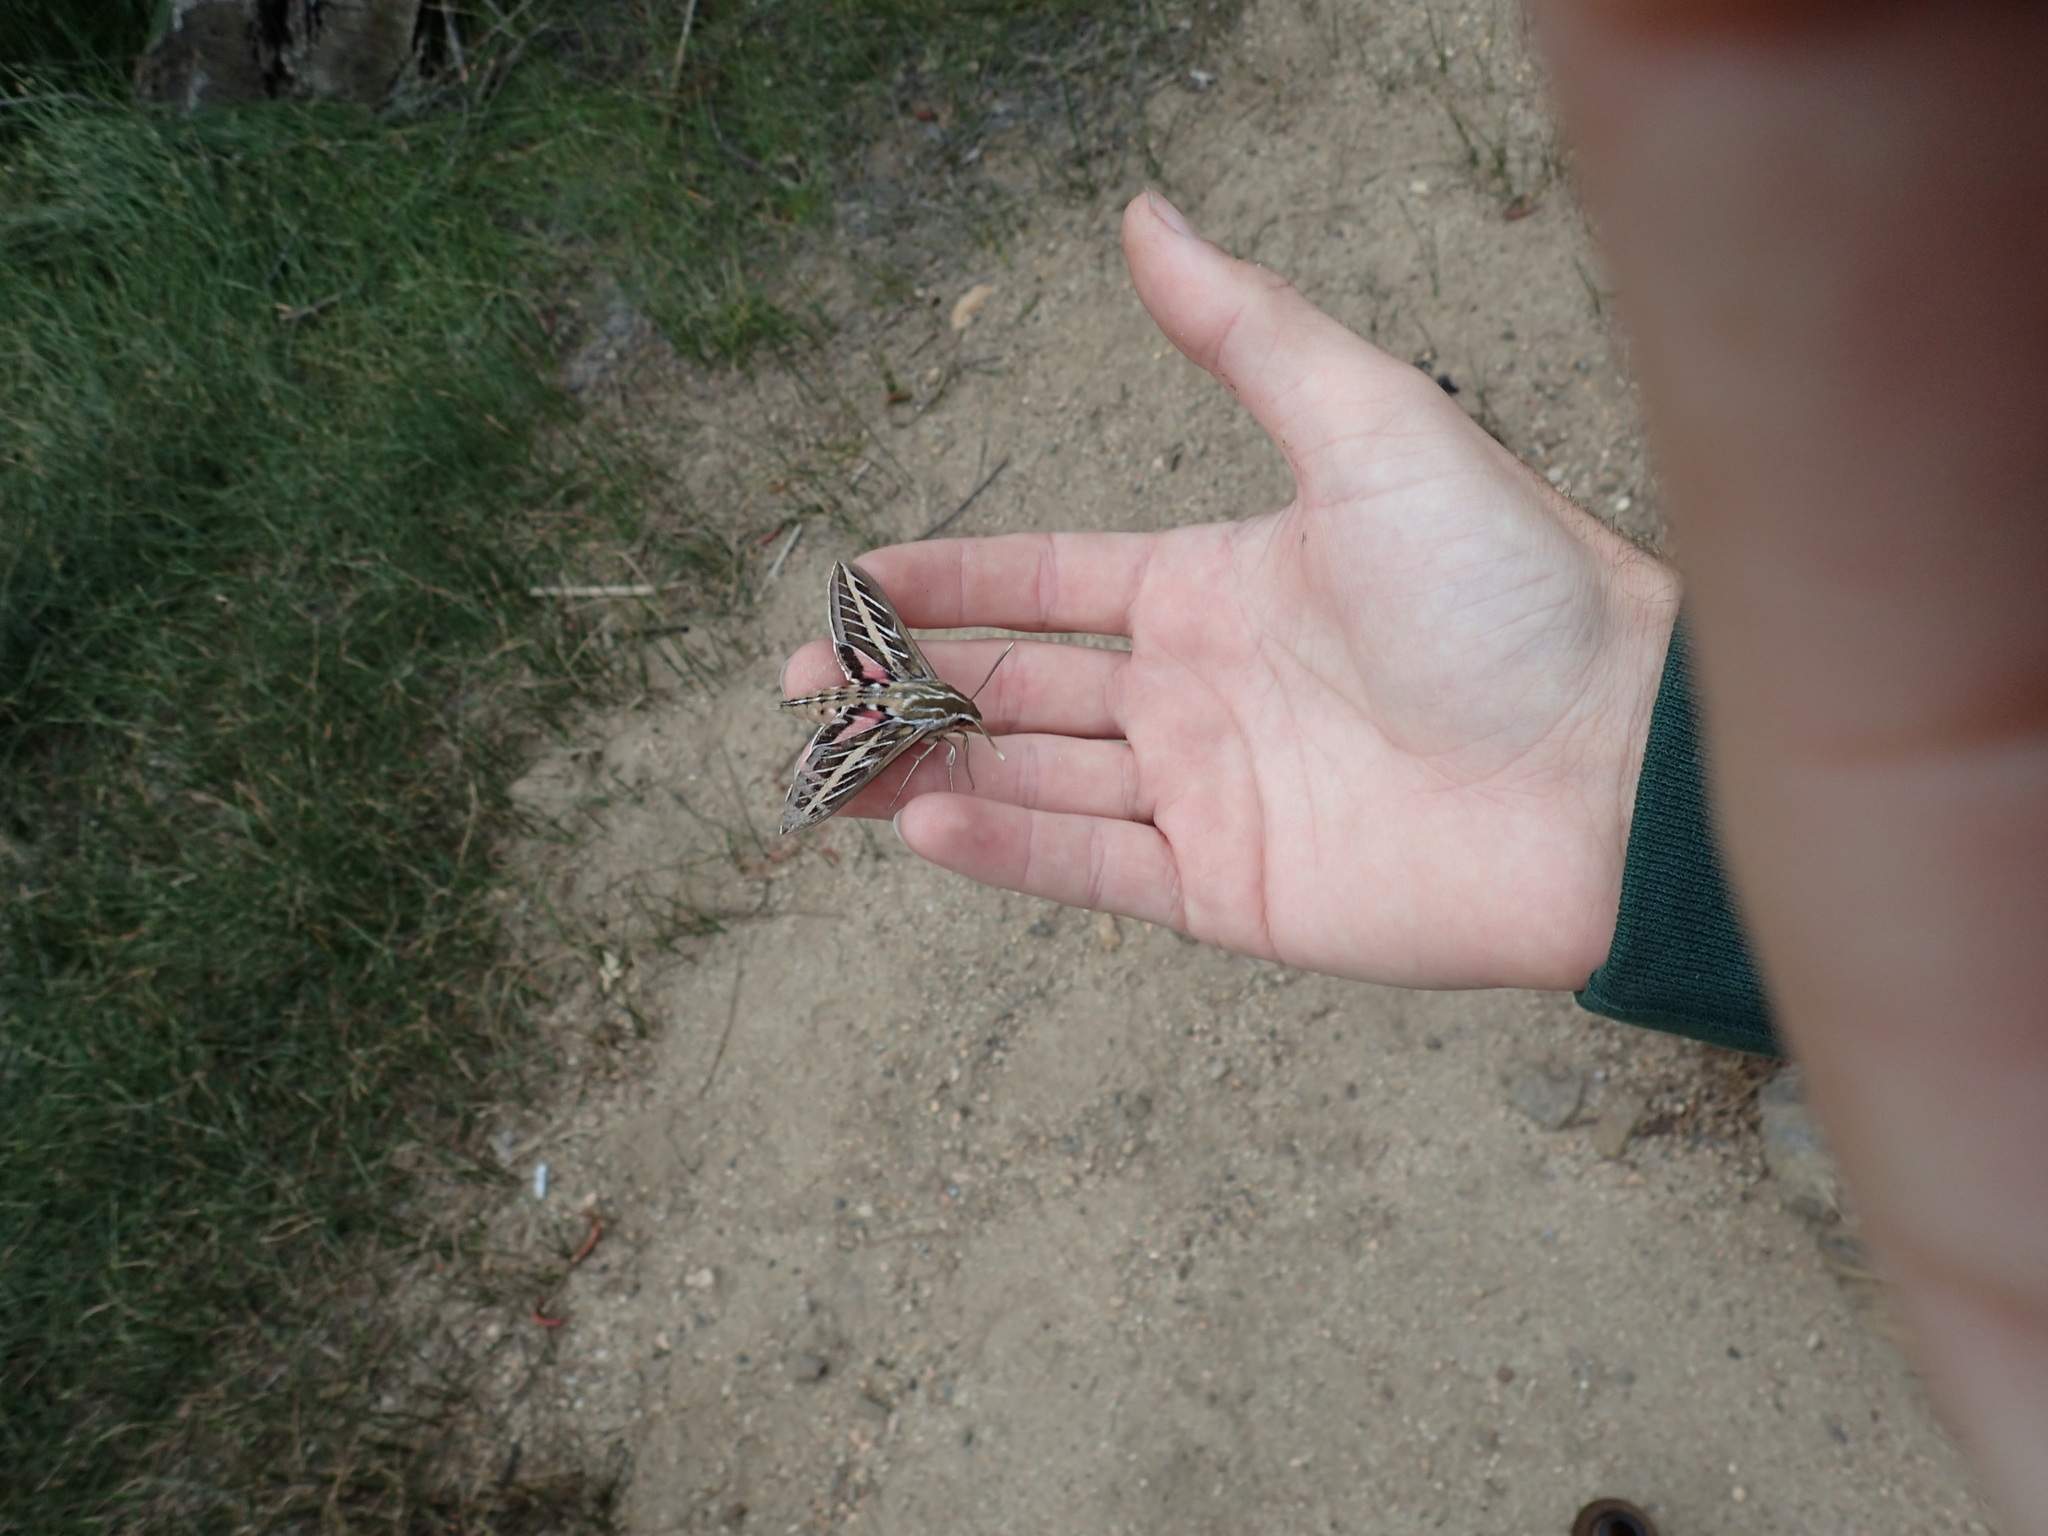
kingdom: Animalia
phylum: Arthropoda
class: Insecta
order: Lepidoptera
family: Sphingidae
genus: Hyles
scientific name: Hyles lineata
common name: White-lined sphinx
